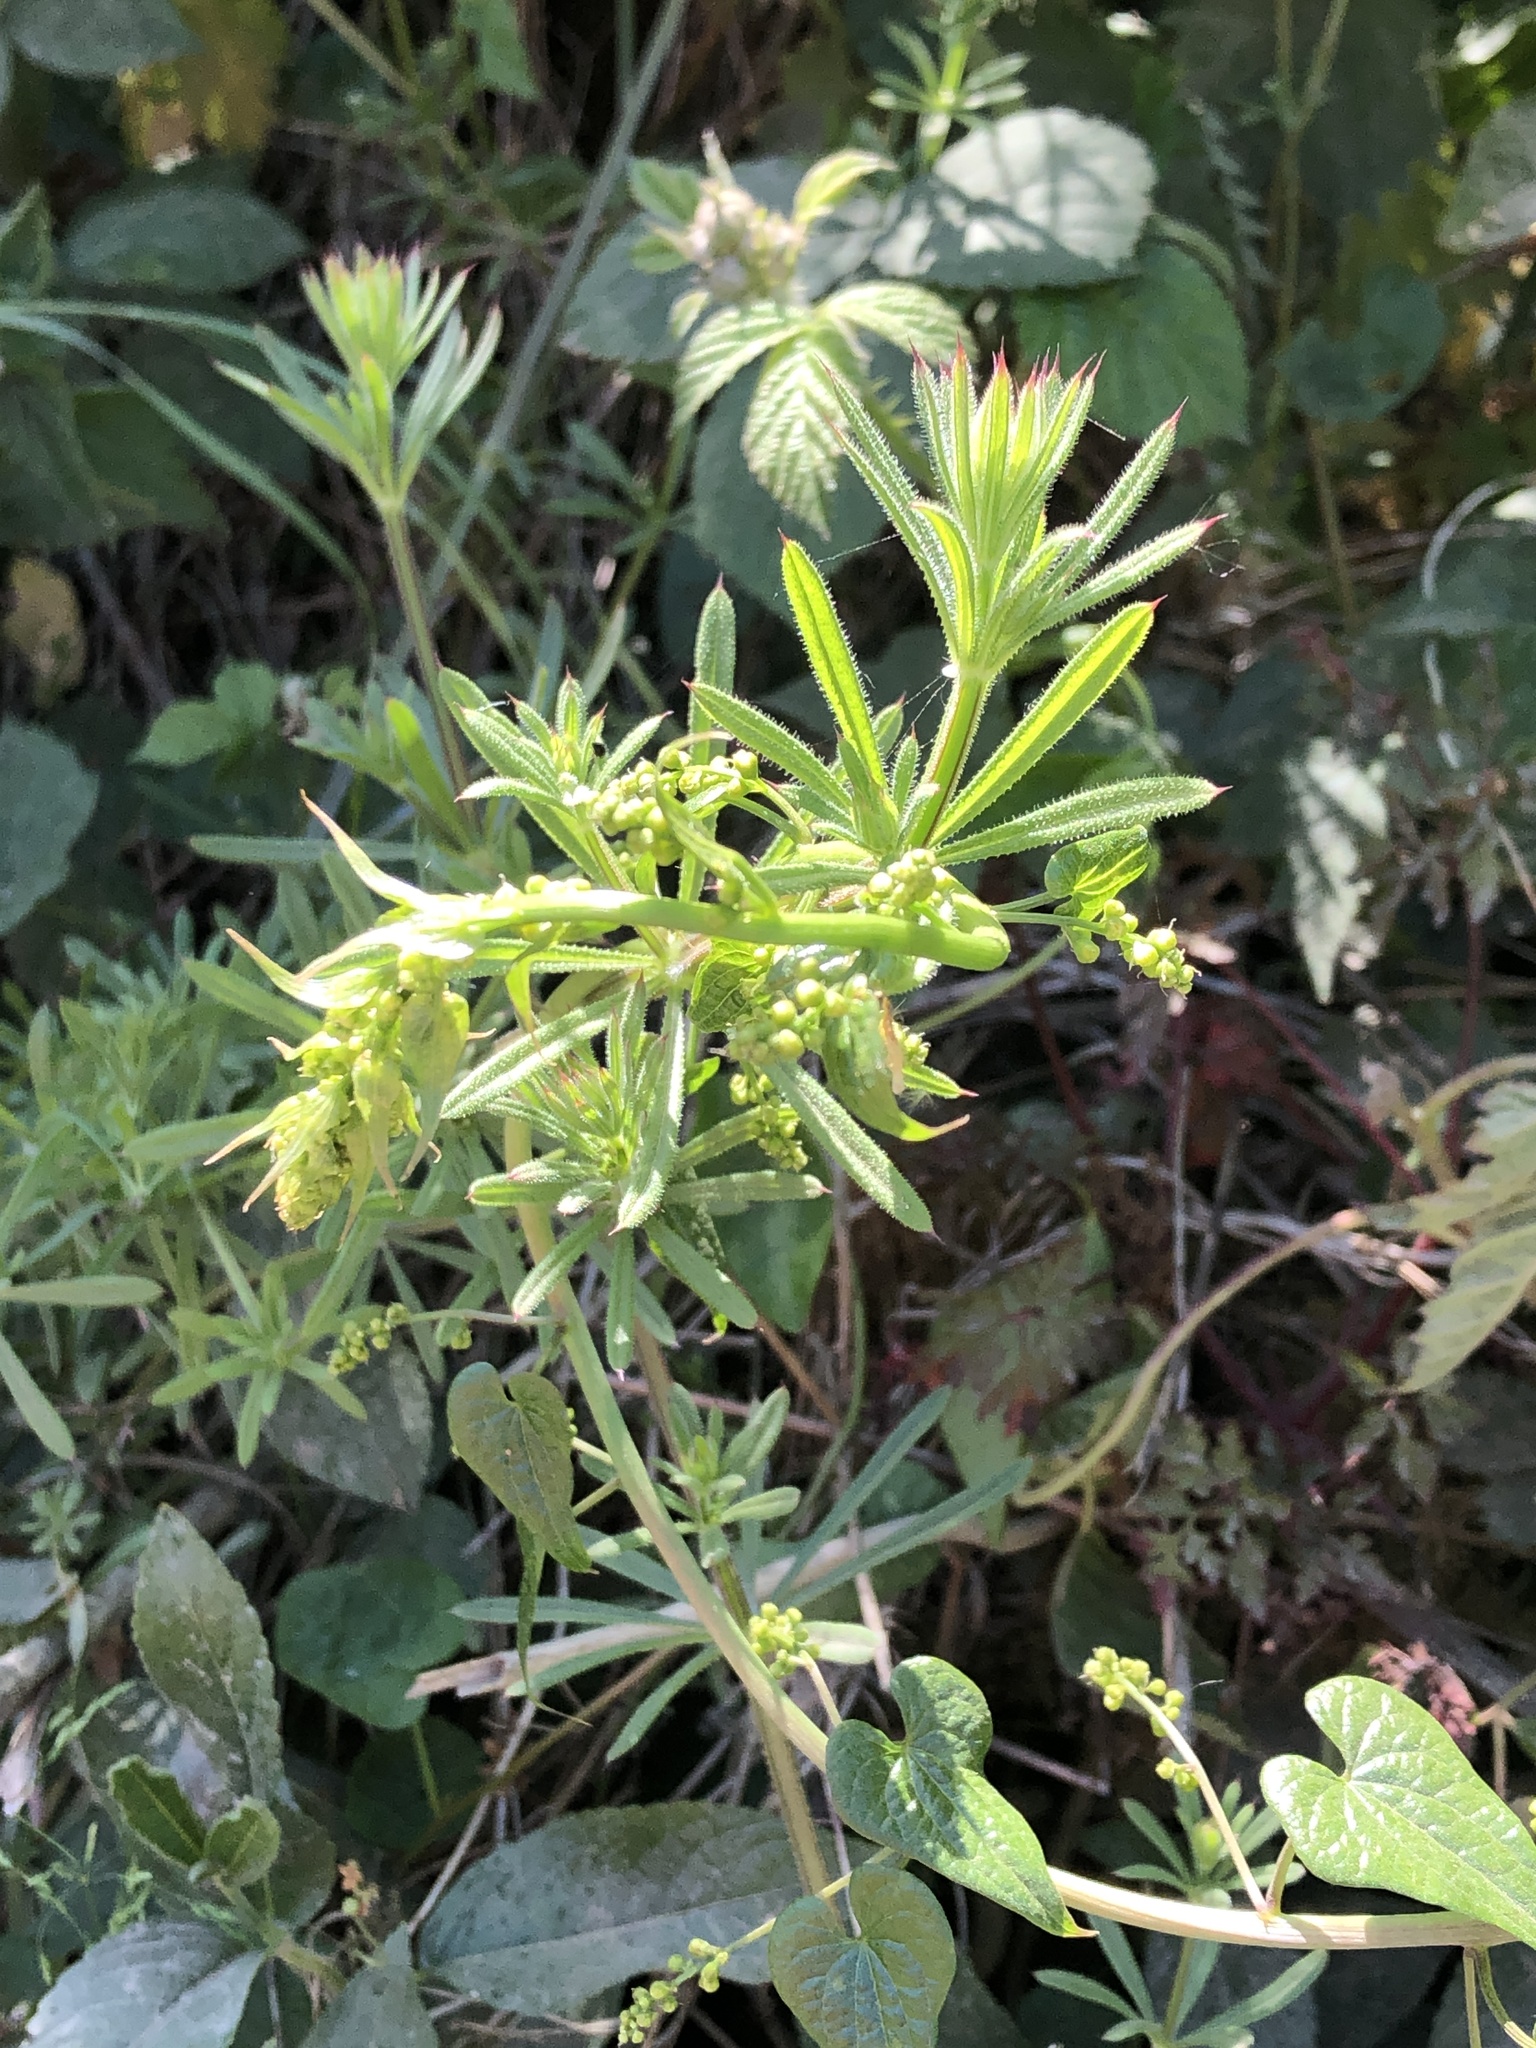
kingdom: Plantae
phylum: Tracheophyta
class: Magnoliopsida
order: Gentianales
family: Rubiaceae
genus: Galium
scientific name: Galium aparine
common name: Cleavers
